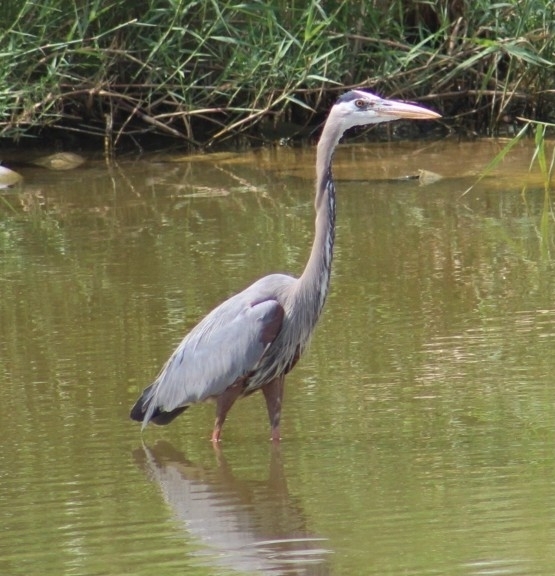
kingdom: Animalia
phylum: Chordata
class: Aves
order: Pelecaniformes
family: Ardeidae
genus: Ardea
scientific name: Ardea herodias
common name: Great blue heron
